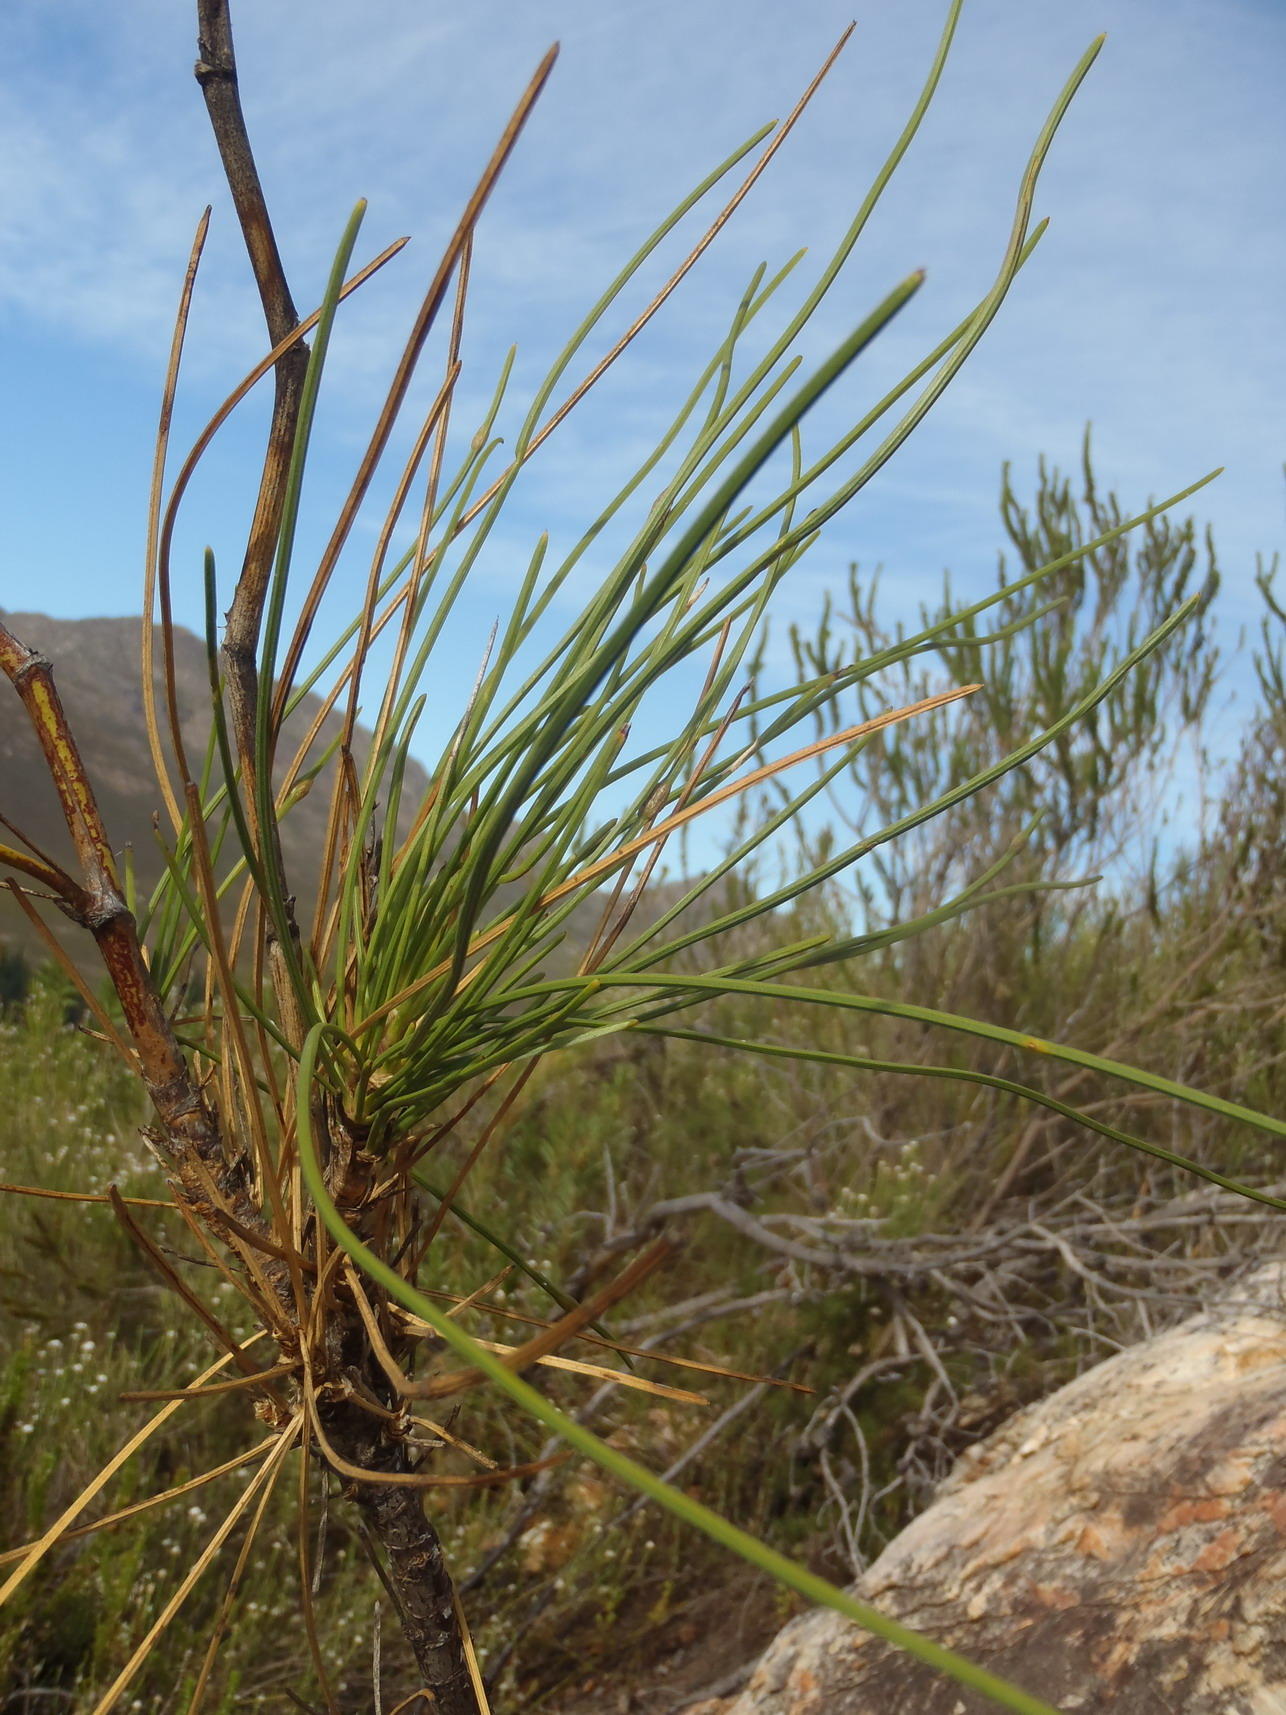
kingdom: Plantae
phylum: Tracheophyta
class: Magnoliopsida
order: Apiales
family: Apiaceae
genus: Anginon
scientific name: Anginon difforme
